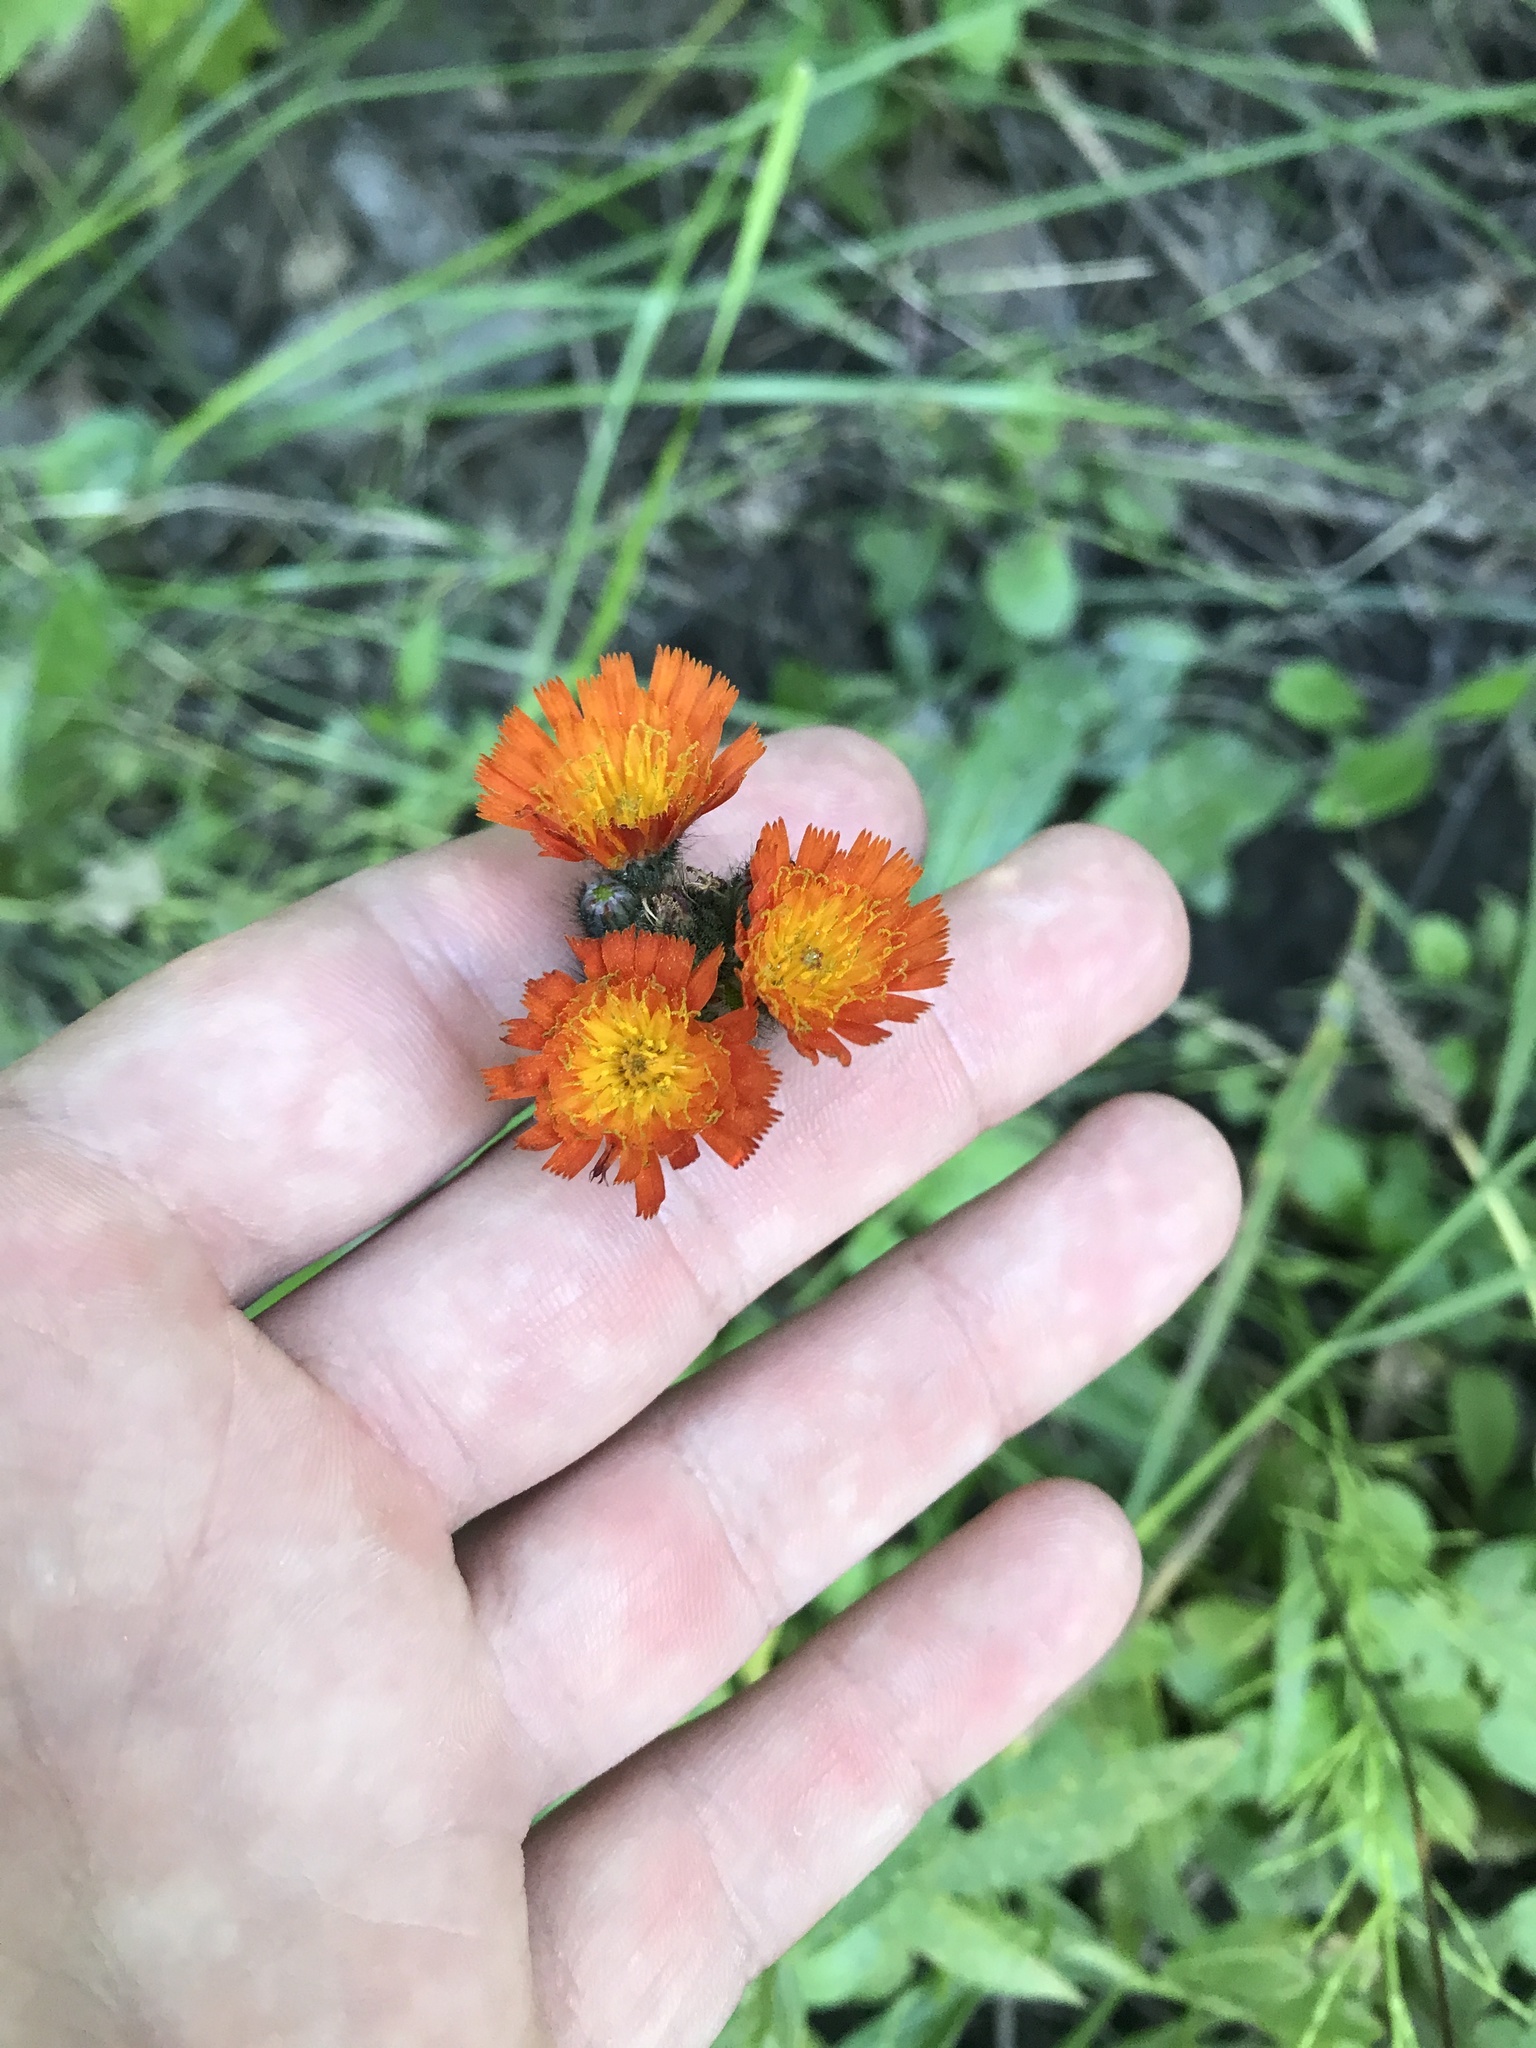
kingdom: Plantae
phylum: Tracheophyta
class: Magnoliopsida
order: Asterales
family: Asteraceae
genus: Pilosella
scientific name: Pilosella aurantiaca
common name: Fox-and-cubs
